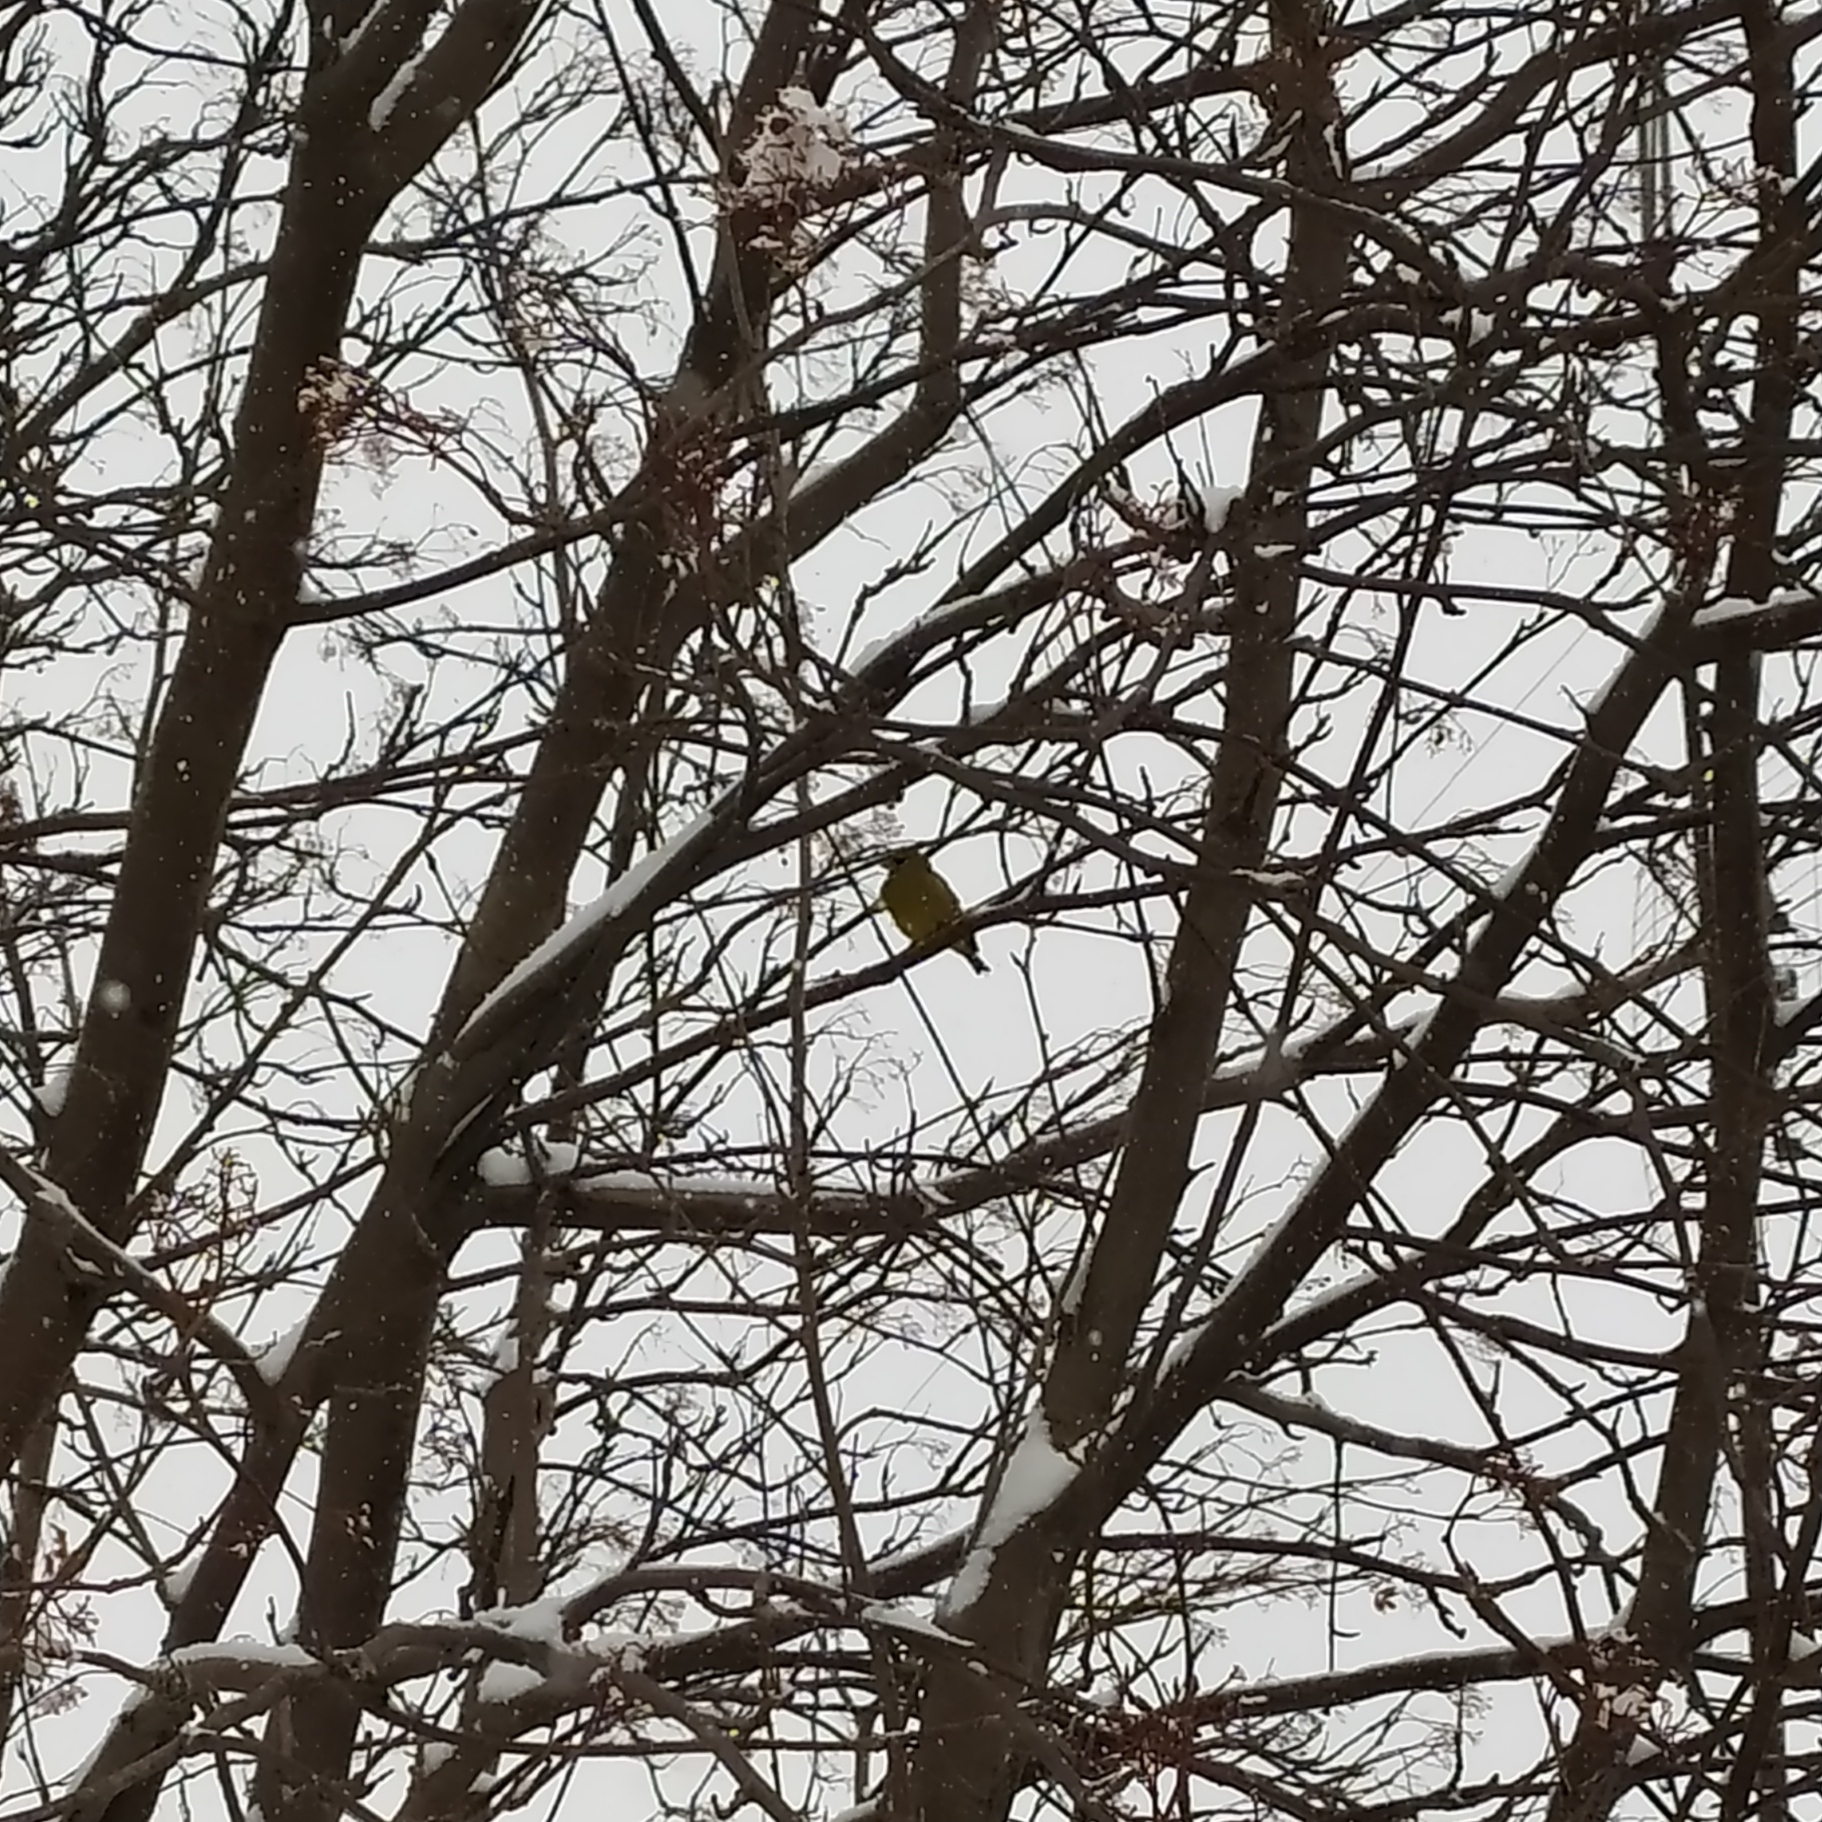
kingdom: Plantae
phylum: Tracheophyta
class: Liliopsida
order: Poales
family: Poaceae
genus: Chloris
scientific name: Chloris chloris
